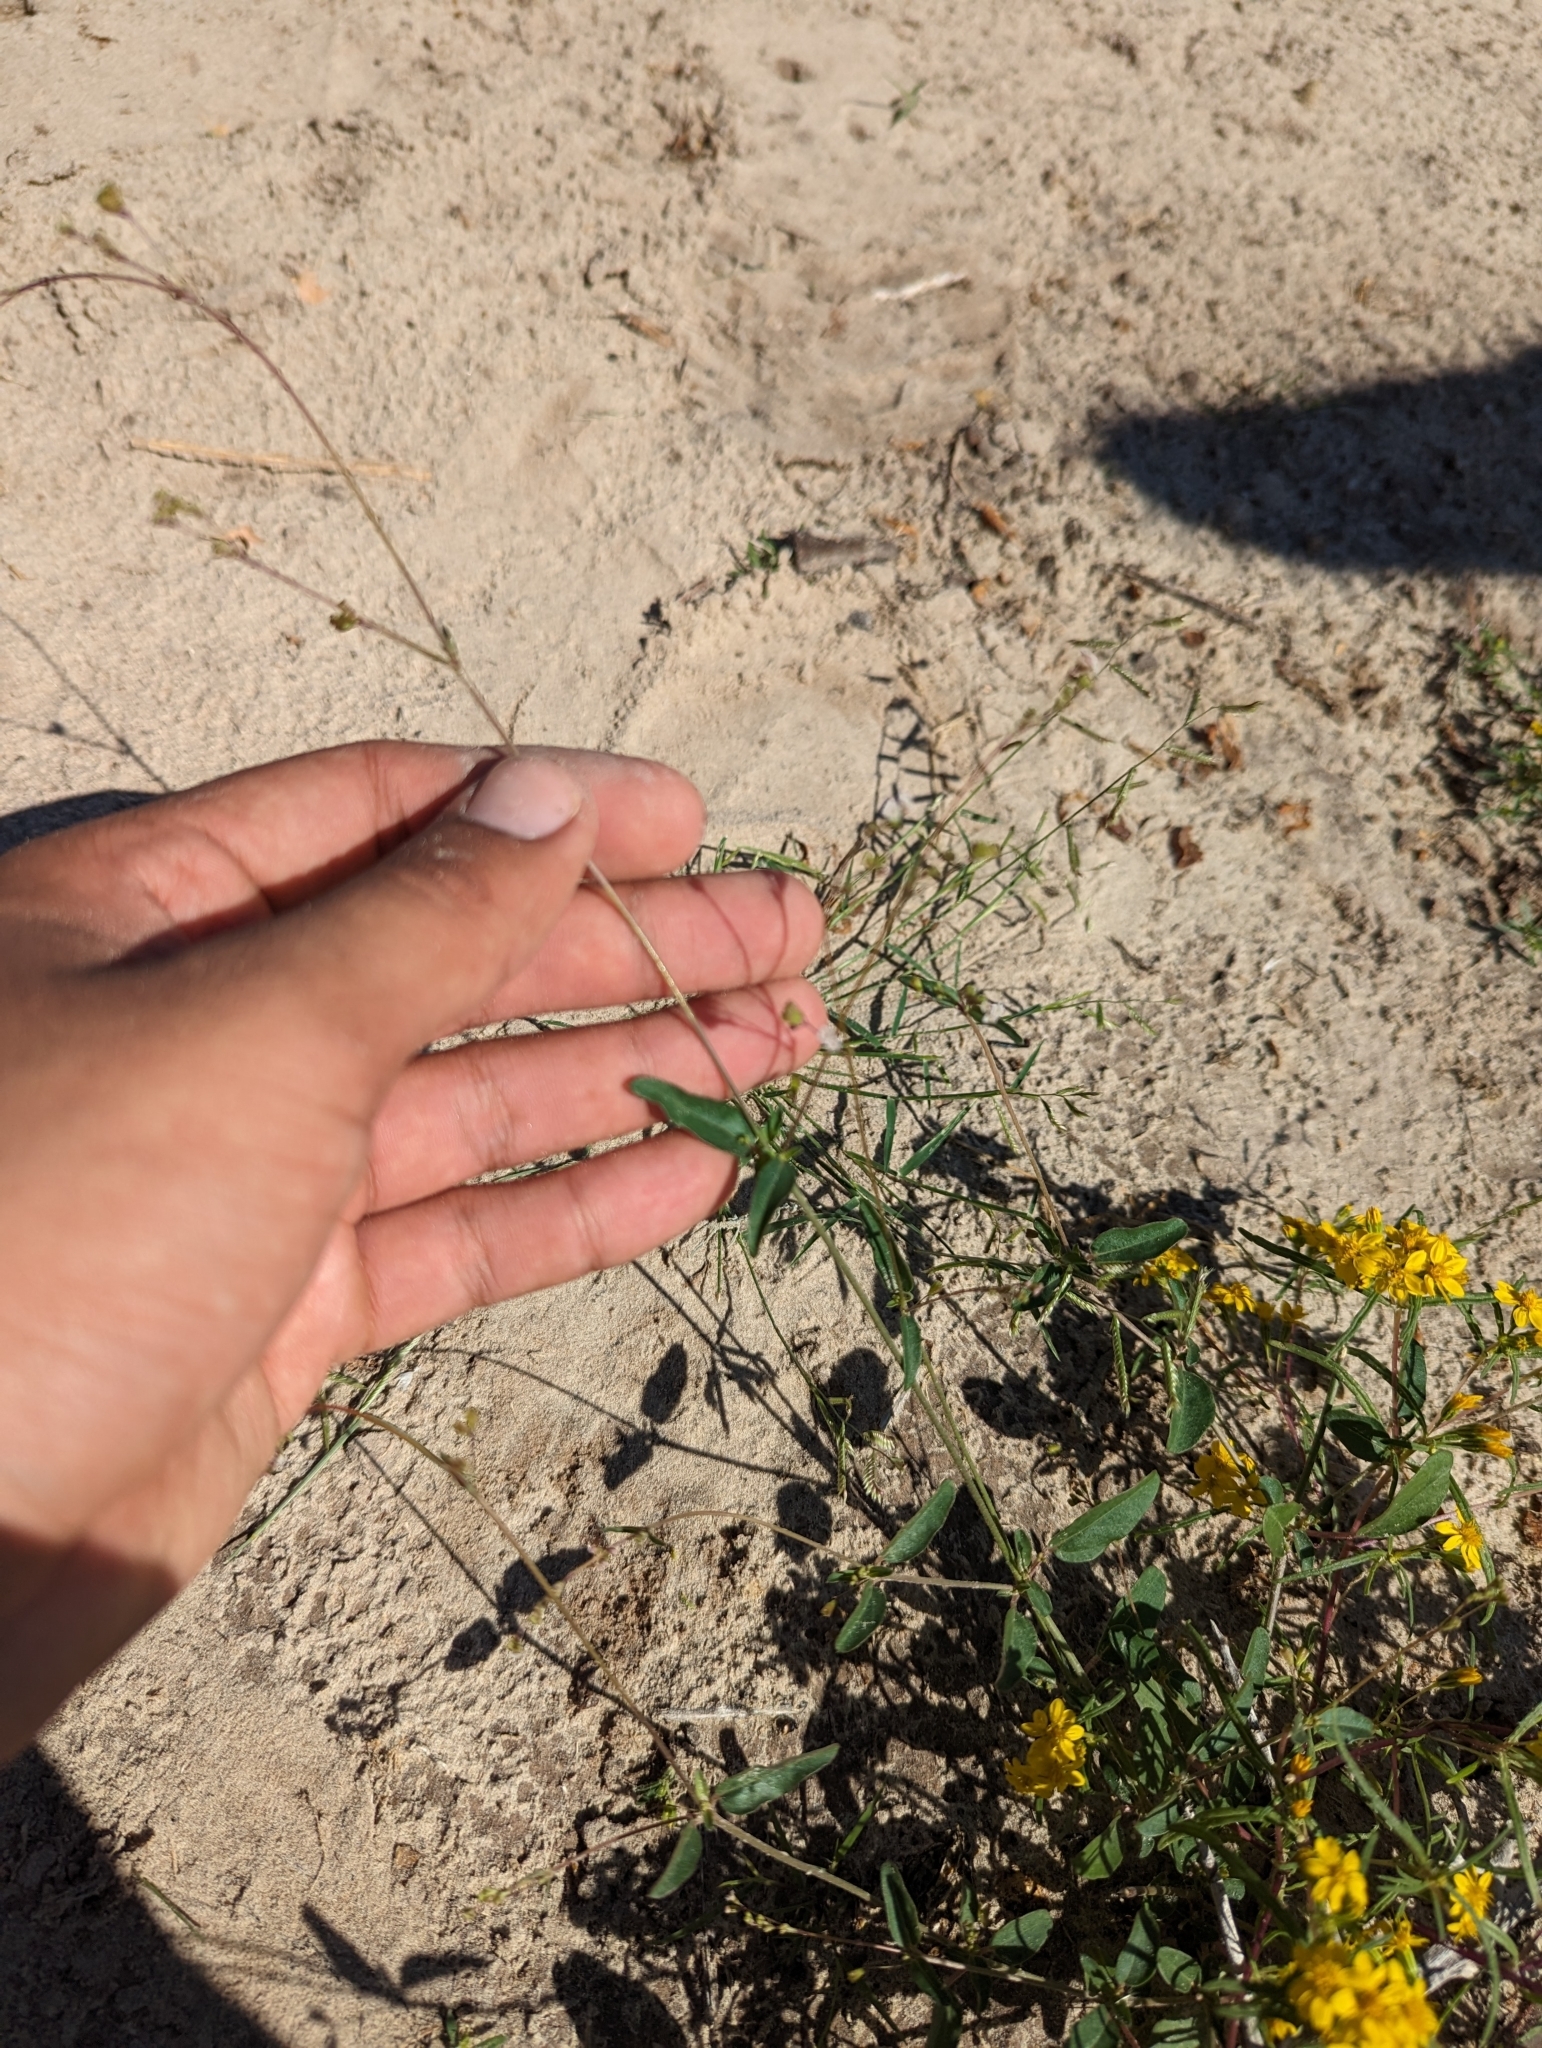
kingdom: Plantae
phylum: Tracheophyta
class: Magnoliopsida
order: Caryophyllales
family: Nyctaginaceae
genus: Boerhavia
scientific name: Boerhavia triquetra
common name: Creeping sticky-stem
